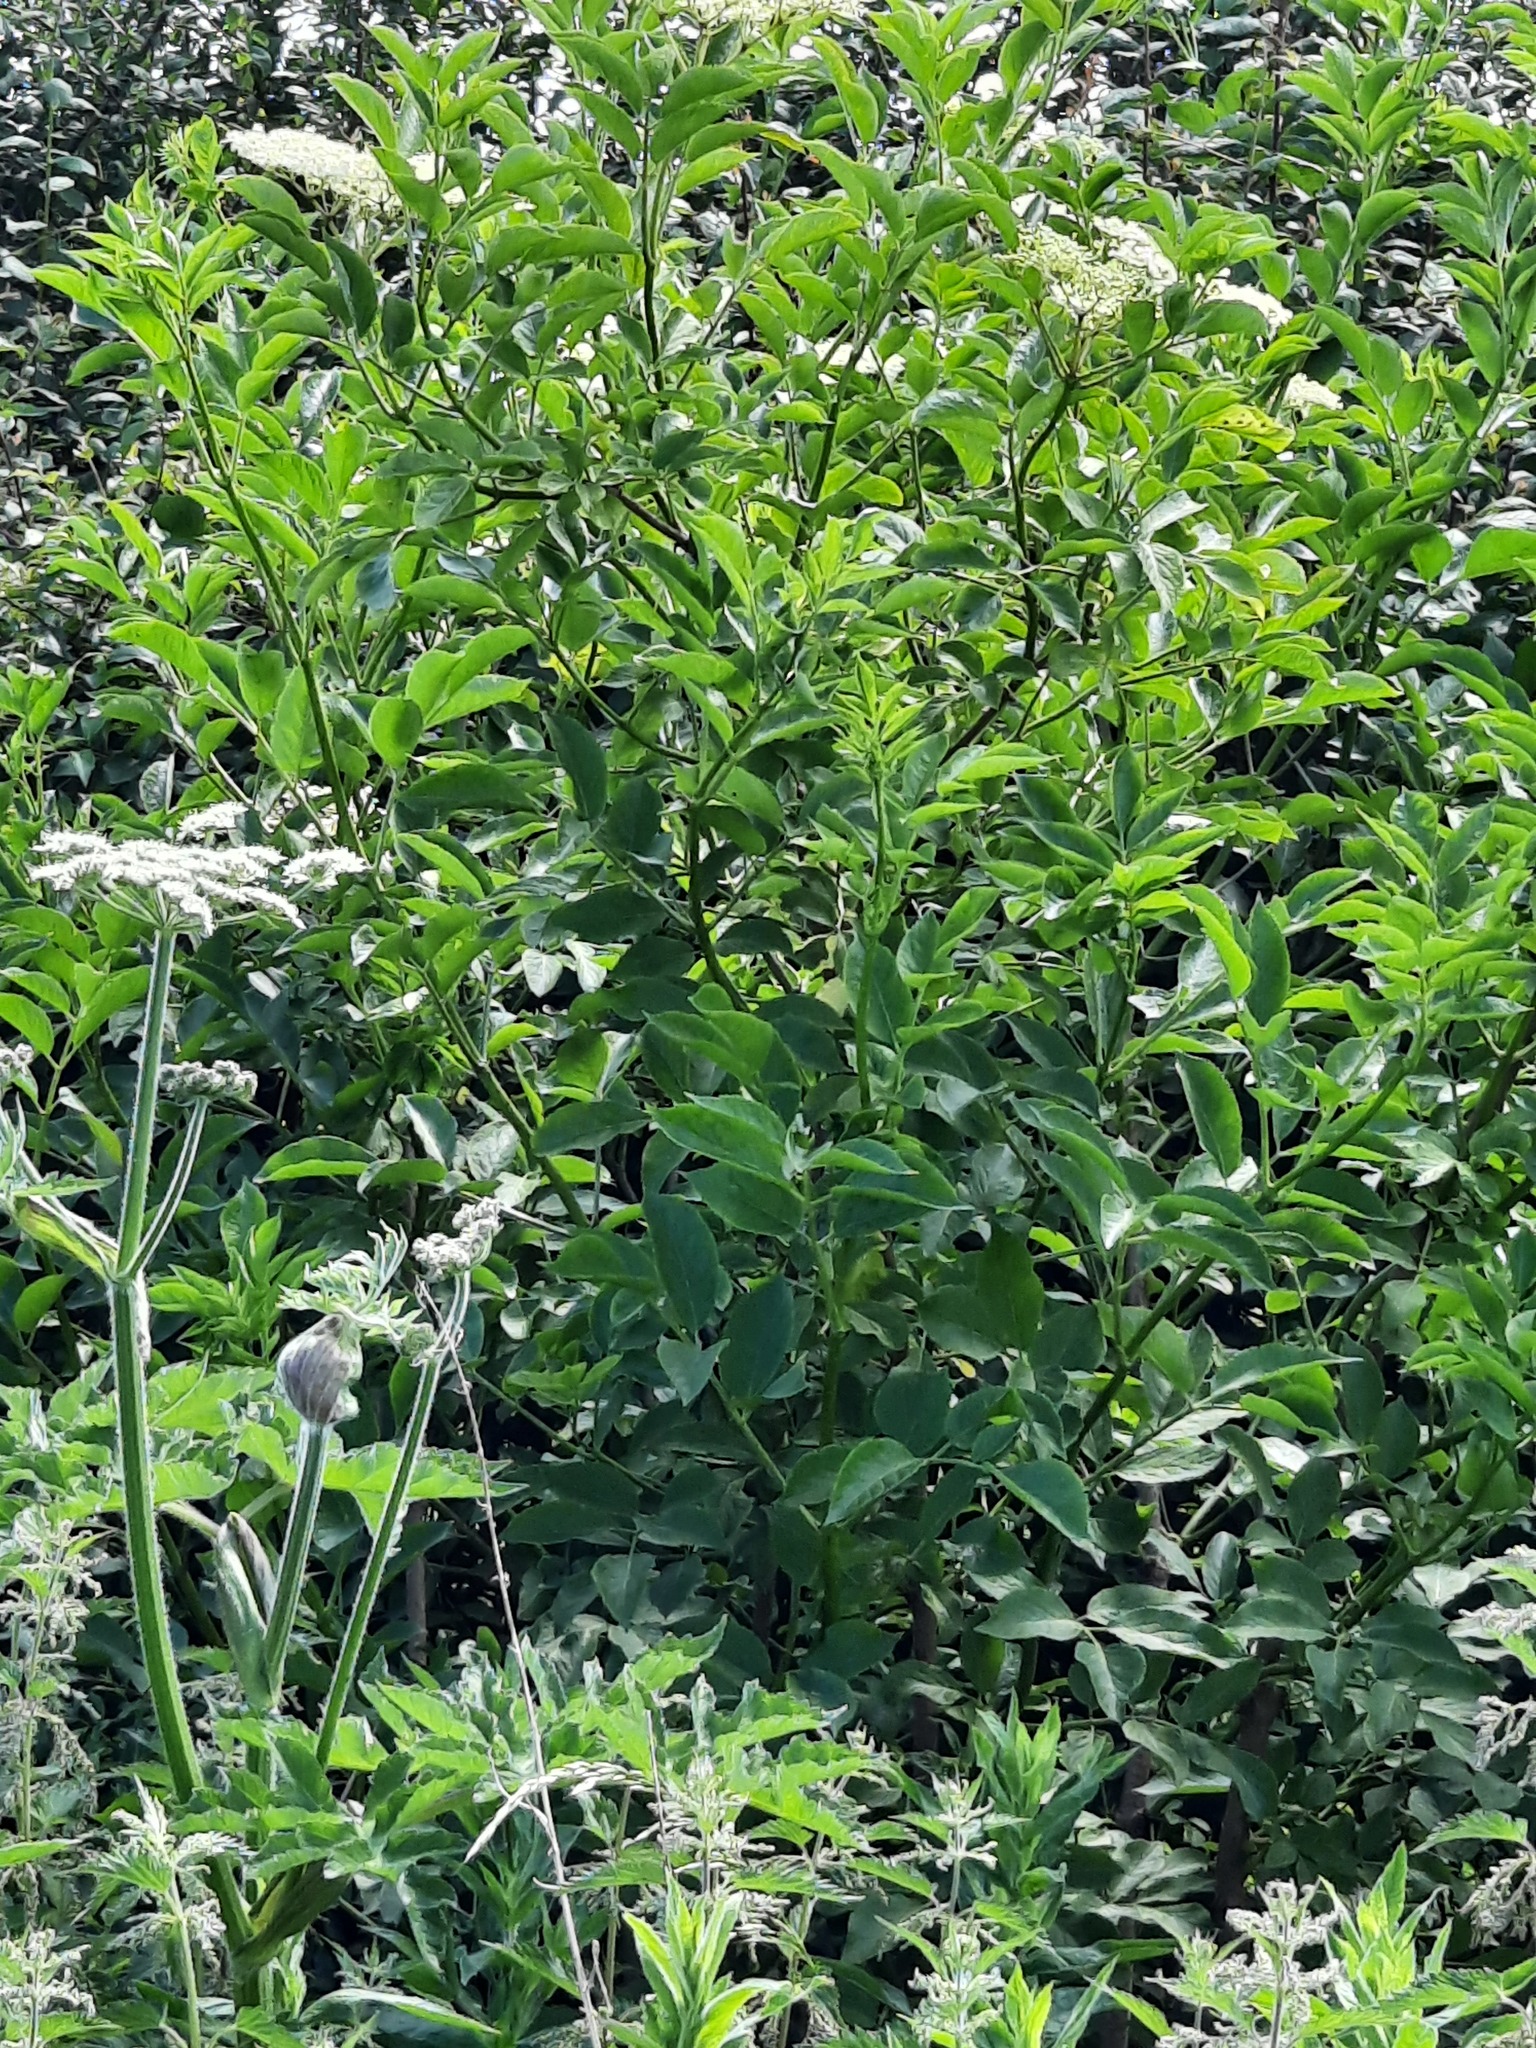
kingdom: Plantae
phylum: Tracheophyta
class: Magnoliopsida
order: Dipsacales
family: Viburnaceae
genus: Sambucus
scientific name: Sambucus nigra
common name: Elder
